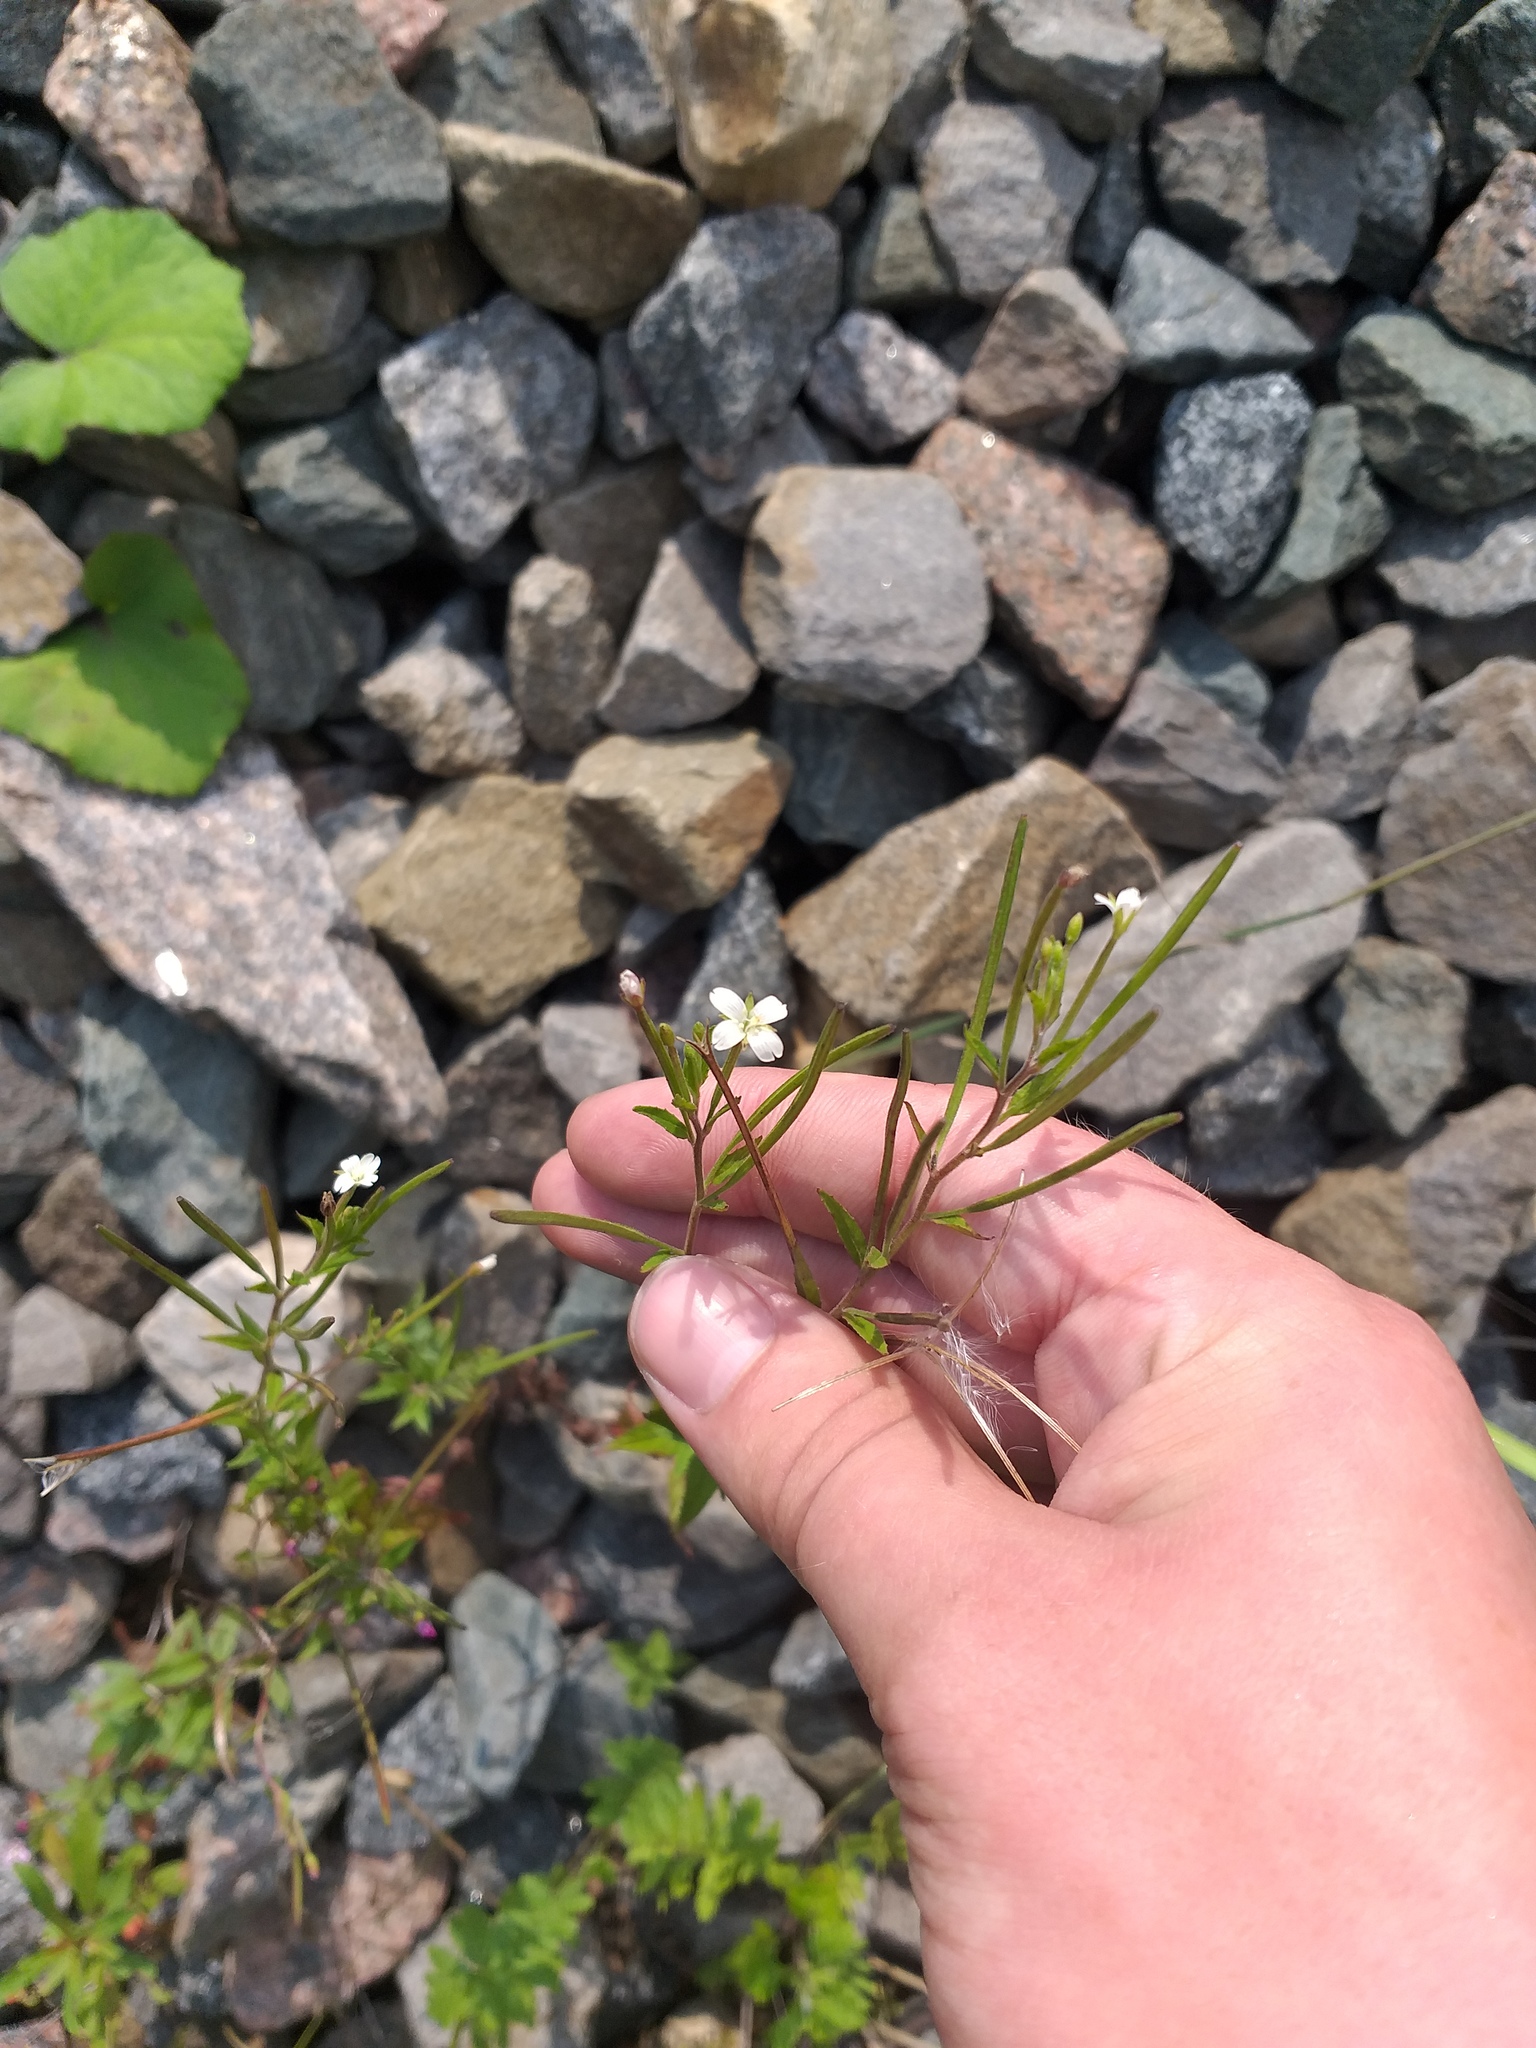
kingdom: Plantae
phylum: Tracheophyta
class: Magnoliopsida
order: Myrtales
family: Onagraceae
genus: Epilobium
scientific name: Epilobium pseudorubescens
